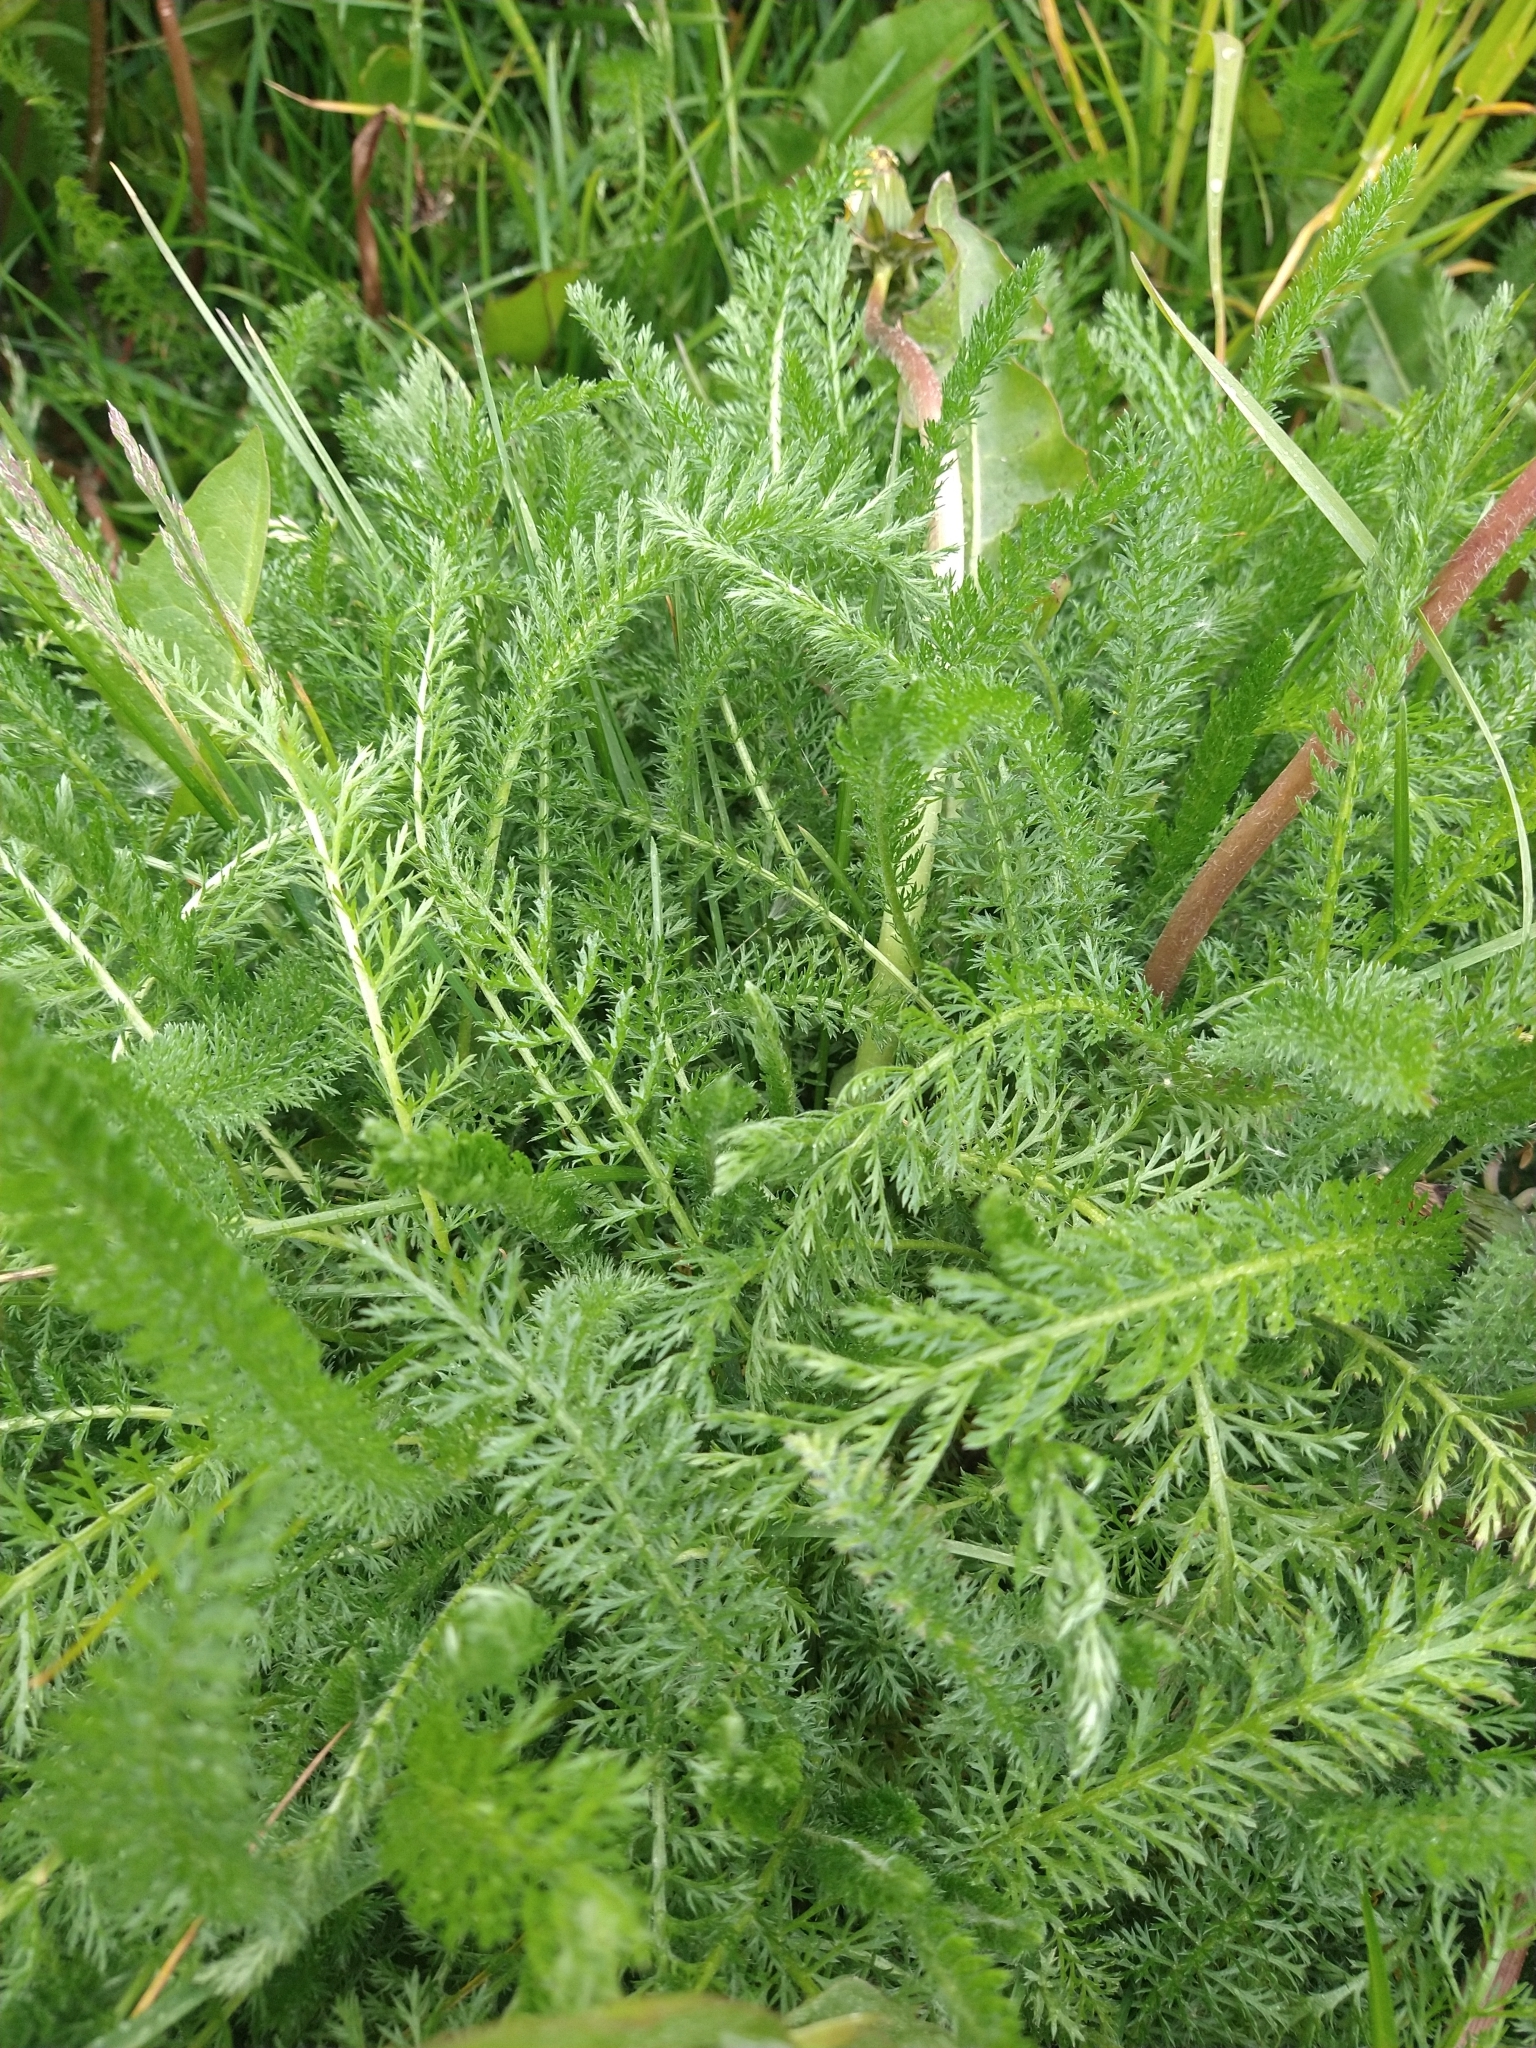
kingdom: Plantae
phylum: Tracheophyta
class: Magnoliopsida
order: Asterales
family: Asteraceae
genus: Achillea
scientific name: Achillea millefolium
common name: Yarrow
